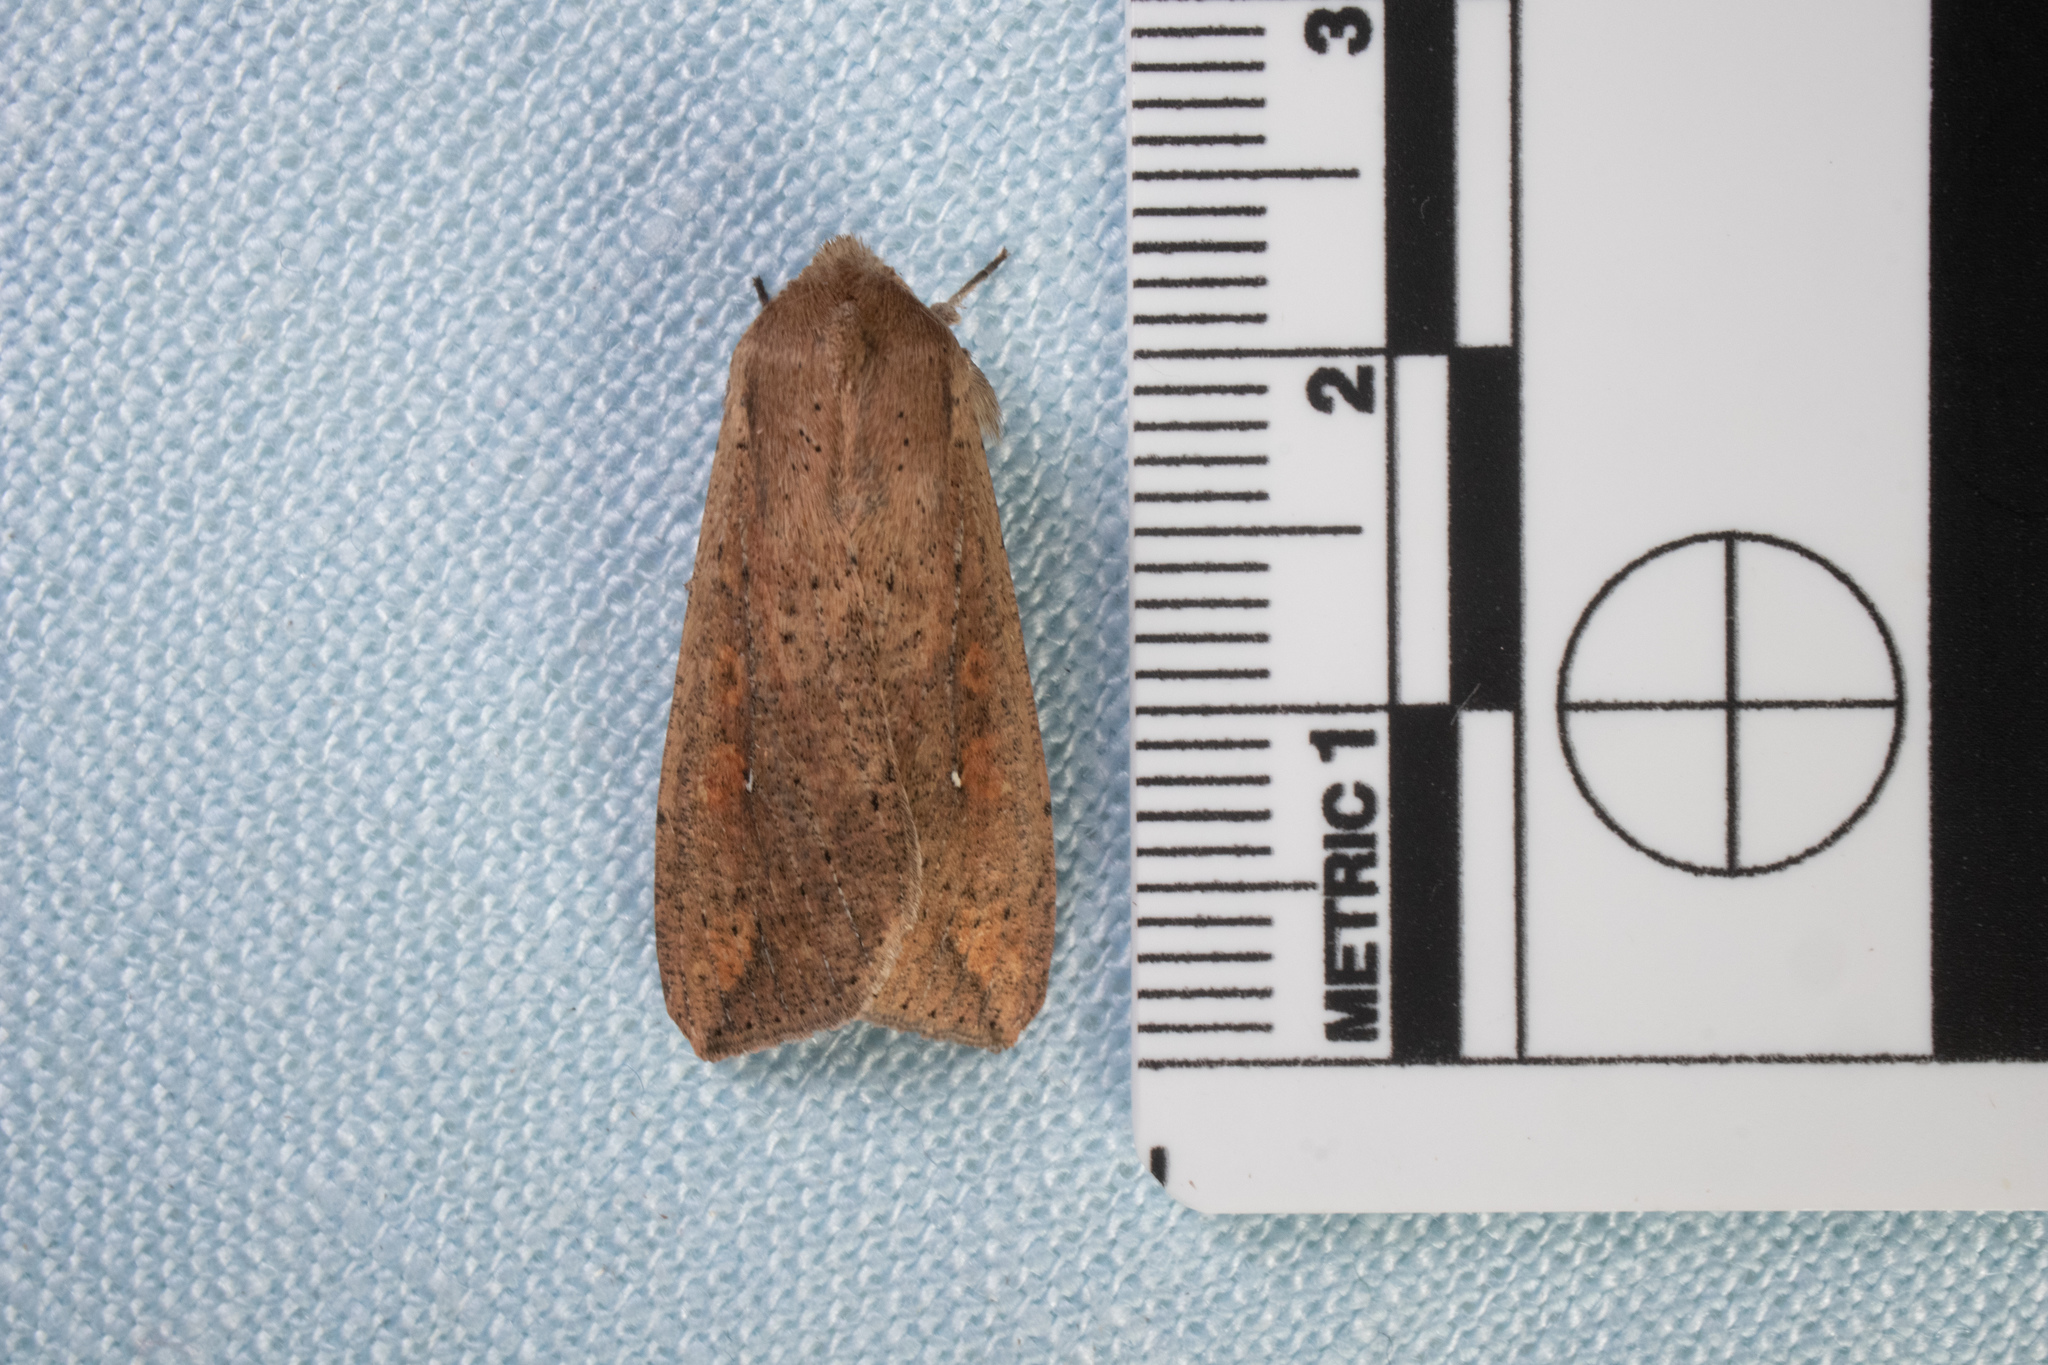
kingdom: Animalia
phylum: Arthropoda
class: Insecta
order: Lepidoptera
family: Noctuidae
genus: Mythimna
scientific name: Mythimna unipuncta
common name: White-speck
